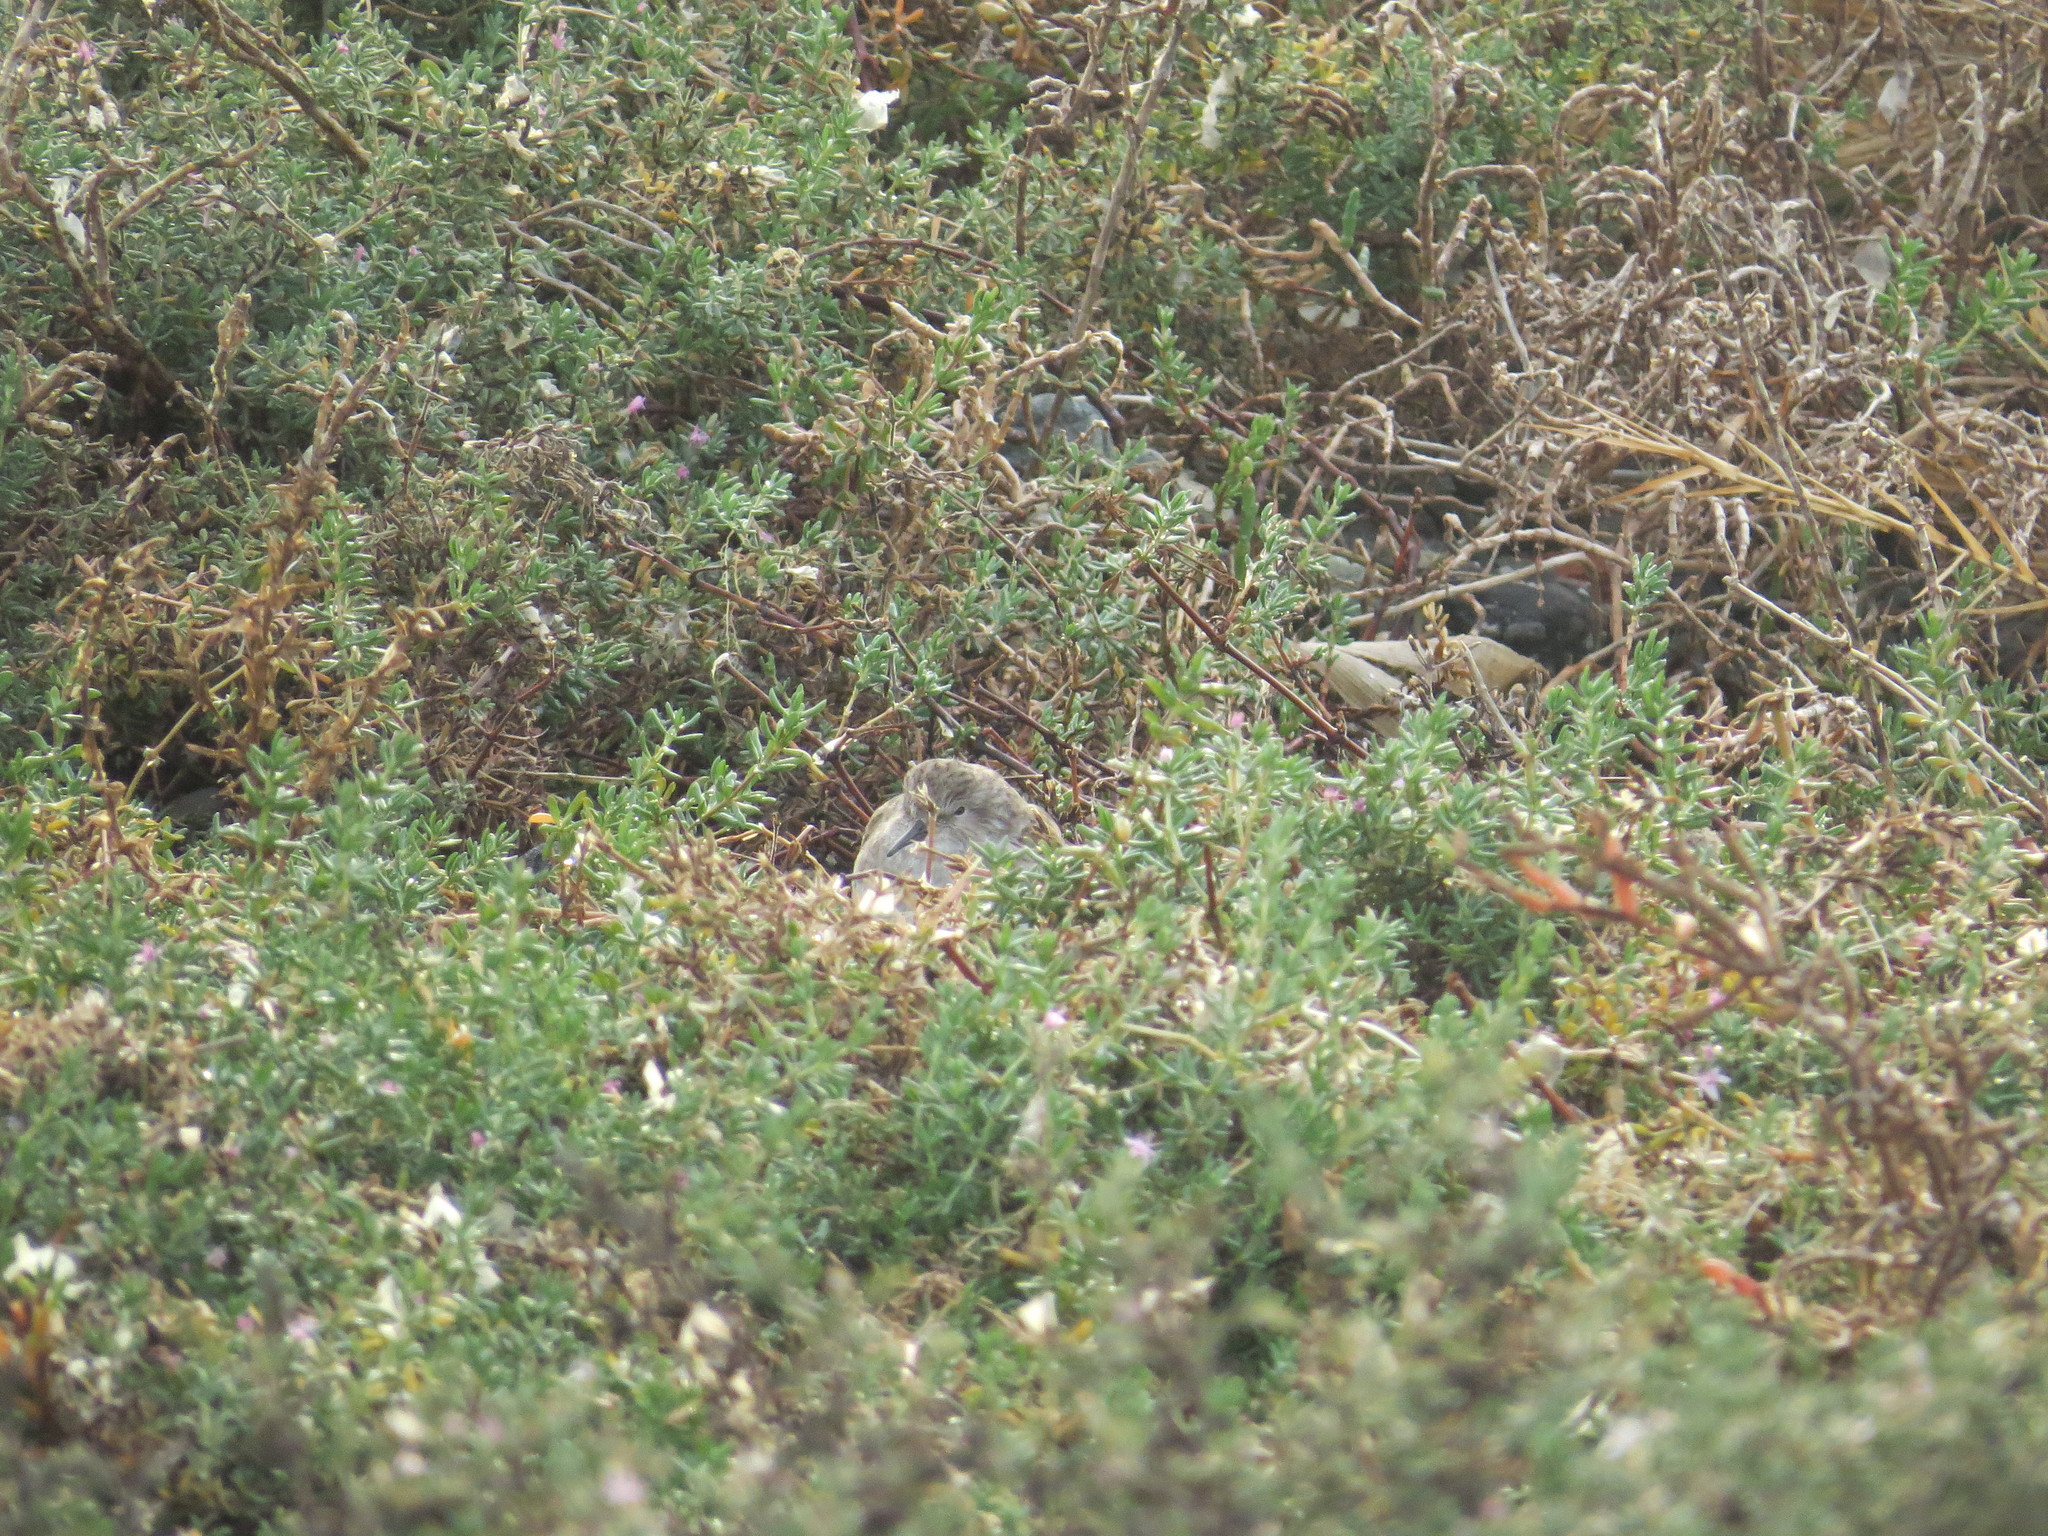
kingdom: Animalia
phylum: Chordata
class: Aves
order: Charadriiformes
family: Scolopacidae
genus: Calidris
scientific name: Calidris minutilla
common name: Least sandpiper
